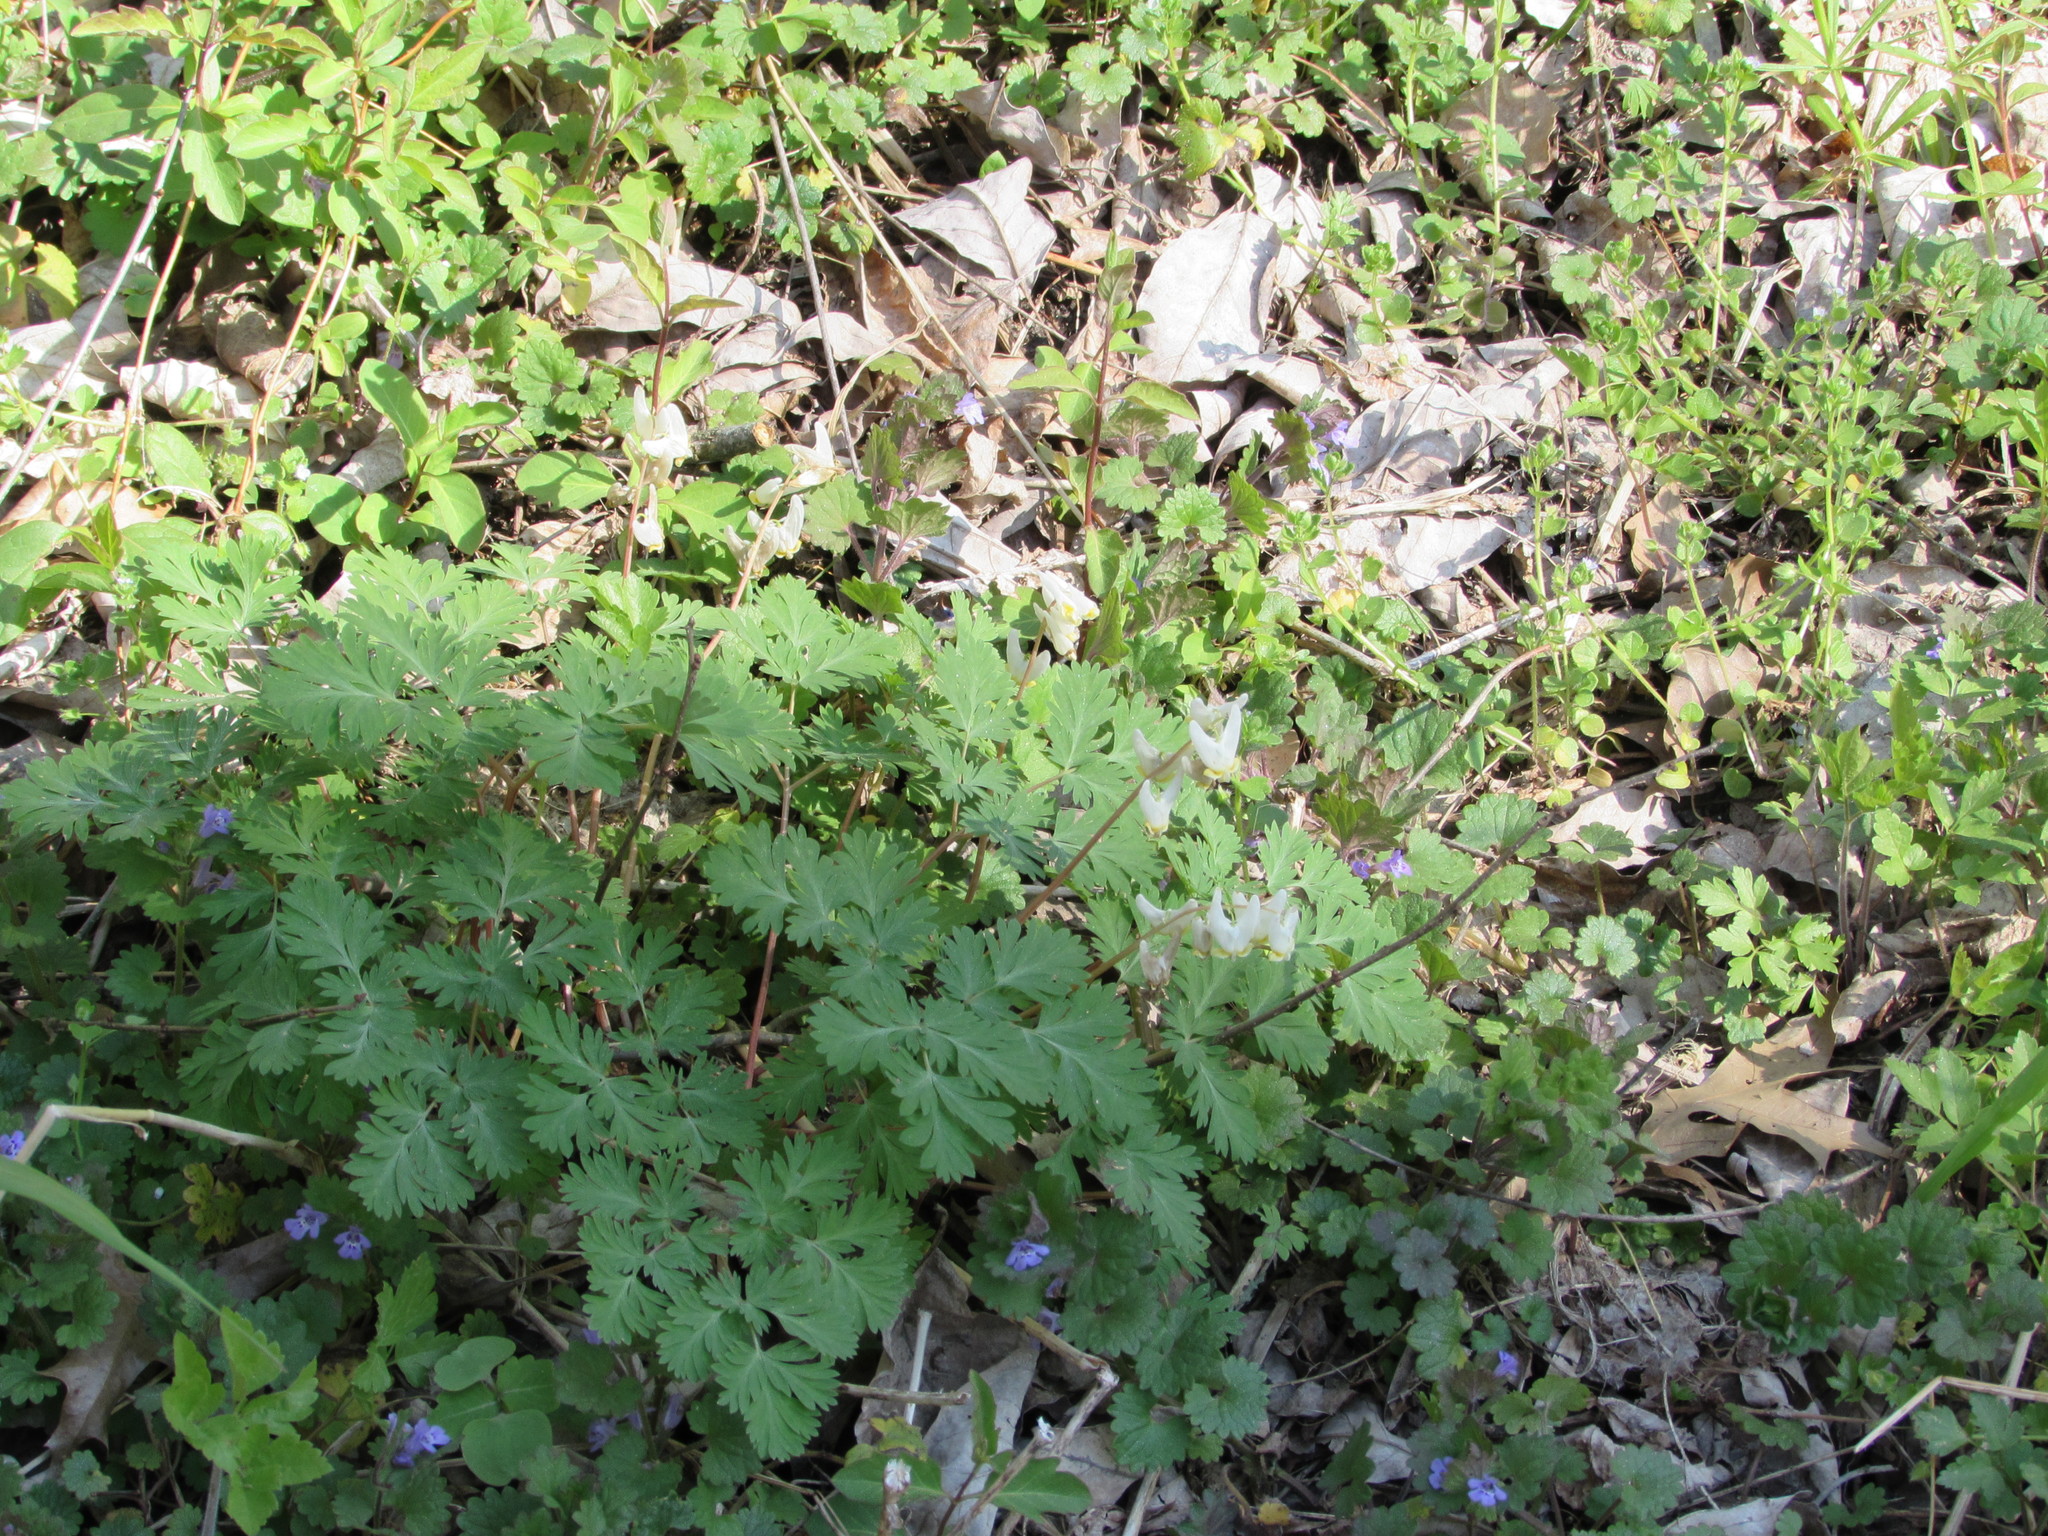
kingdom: Plantae
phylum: Tracheophyta
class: Magnoliopsida
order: Ranunculales
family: Papaveraceae
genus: Dicentra
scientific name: Dicentra cucullaria
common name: Dutchman's breeches
